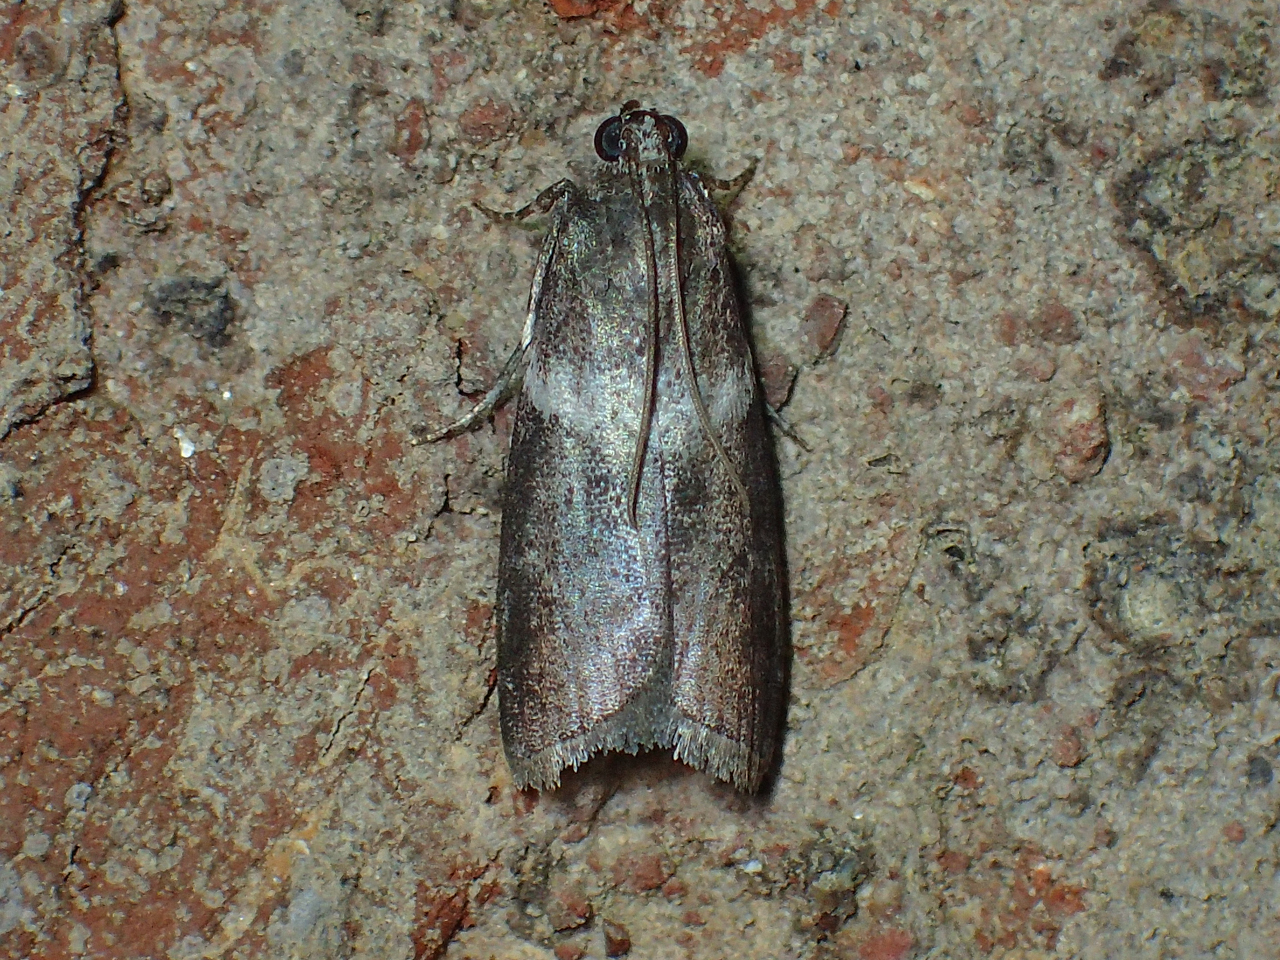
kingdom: Animalia
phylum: Arthropoda
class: Insecta
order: Lepidoptera
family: Pyralidae
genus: Salebriaria
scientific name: Salebriaria rufimaculatella
